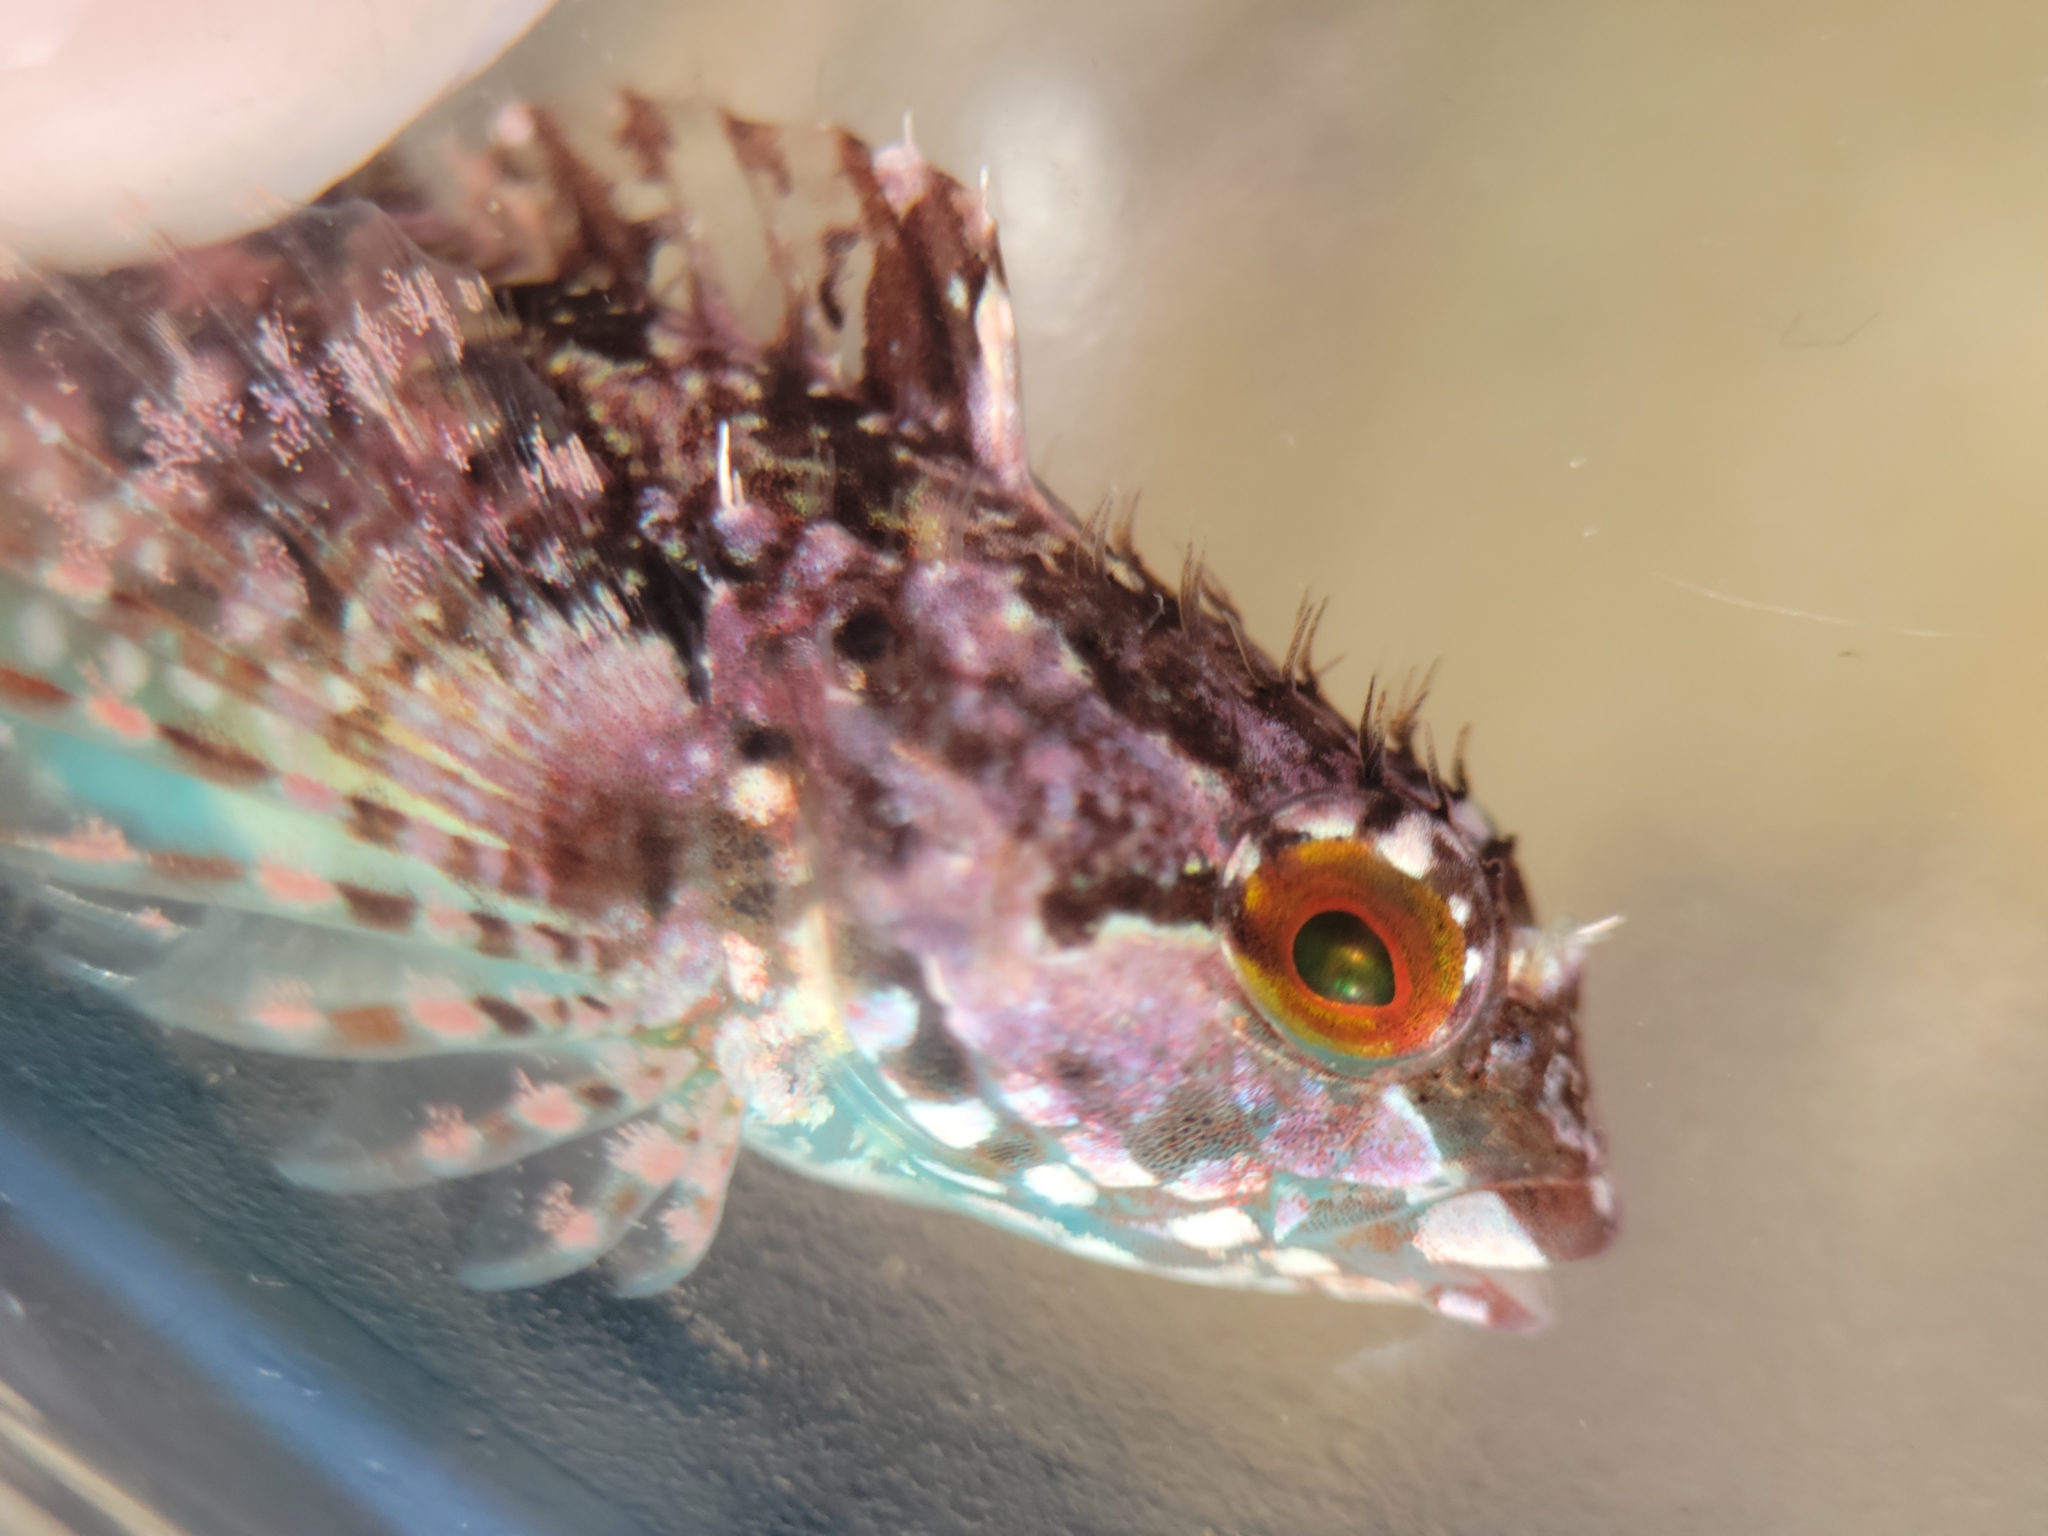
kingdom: Animalia
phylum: Chordata
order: Scorpaeniformes
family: Cottidae
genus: Oligocottus
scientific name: Oligocottus snyderi
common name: Fluffy sculpin
